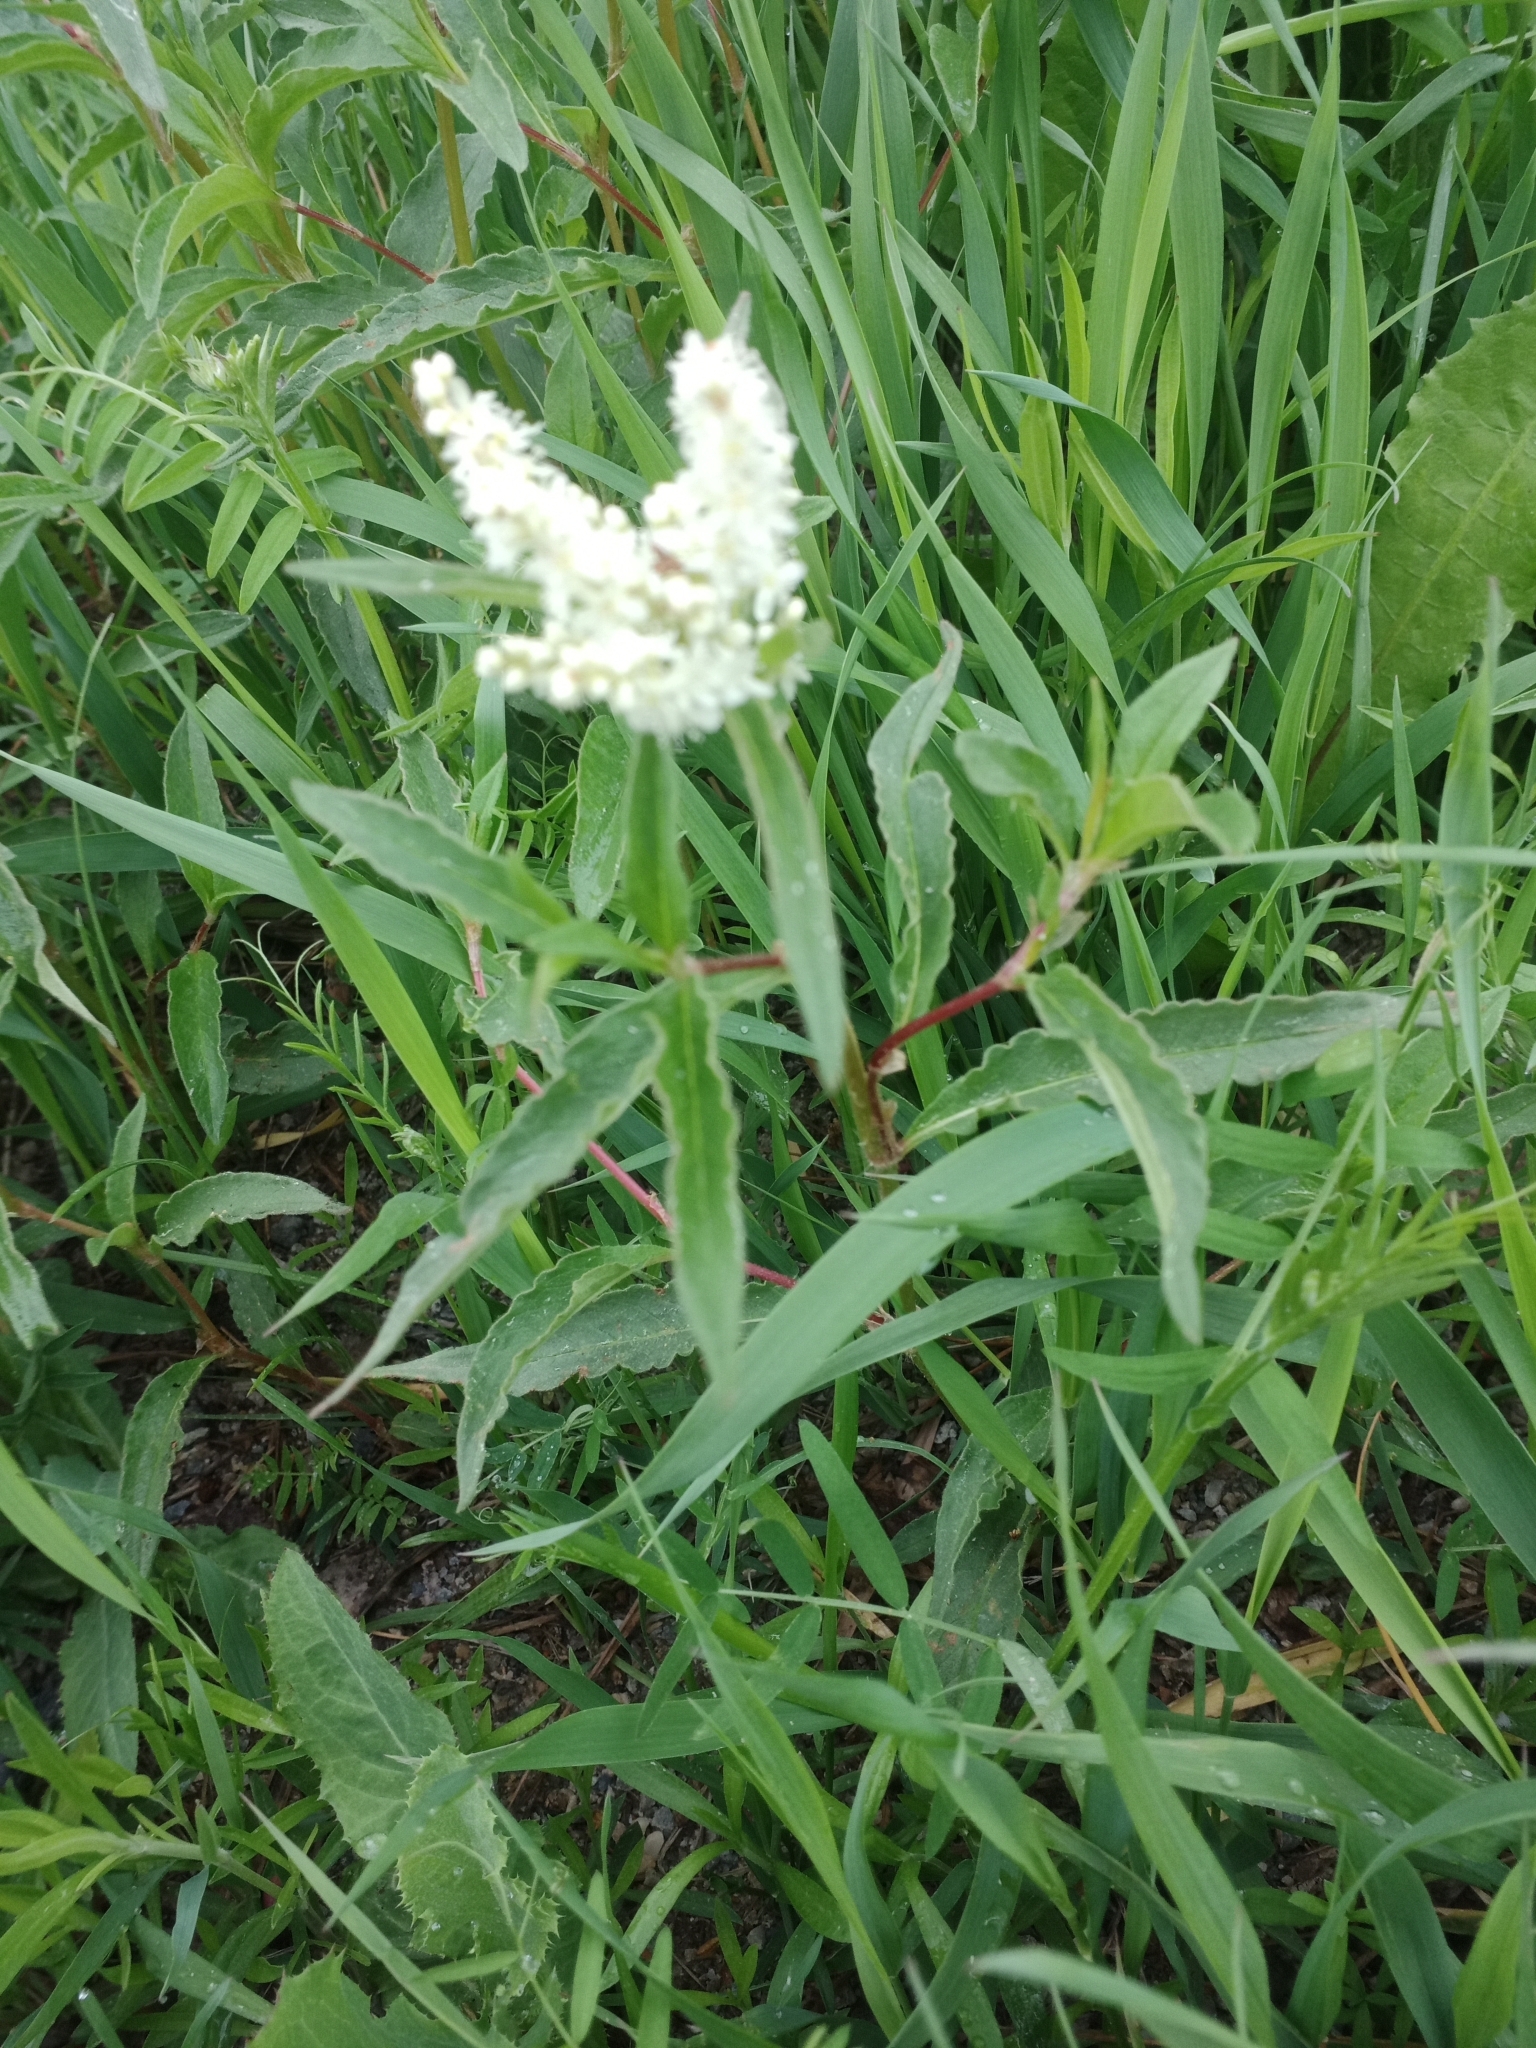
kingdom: Plantae
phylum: Tracheophyta
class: Magnoliopsida
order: Caryophyllales
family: Polygonaceae
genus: Koenigia
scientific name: Koenigia alpina
